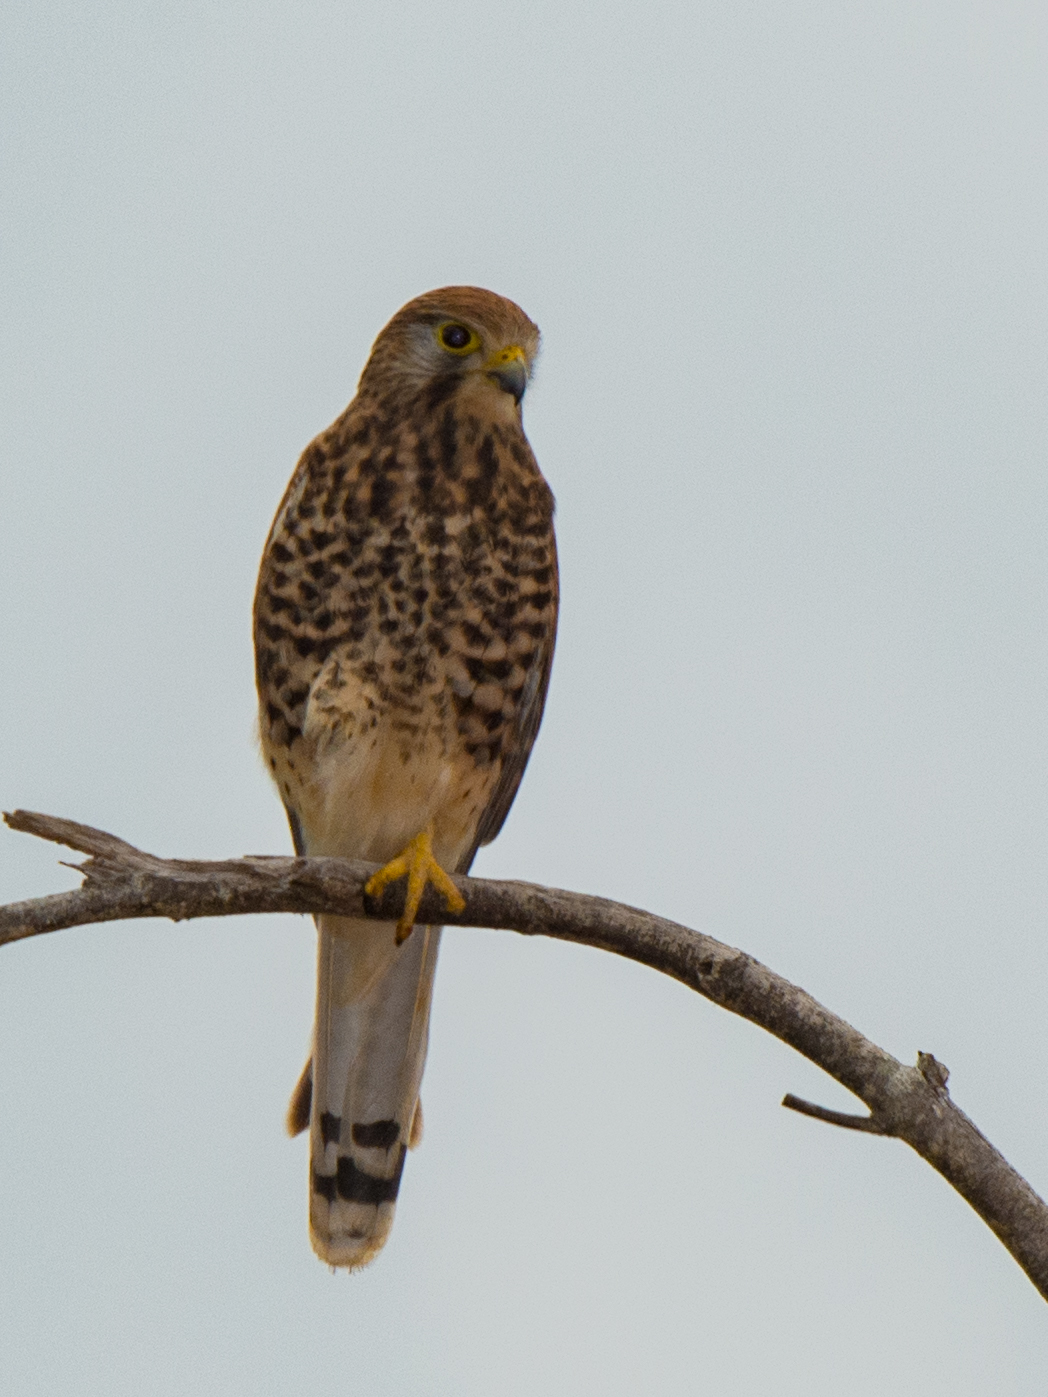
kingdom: Animalia
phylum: Chordata
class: Aves
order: Falconiformes
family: Falconidae
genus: Falco
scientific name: Falco moluccensis
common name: Spotted kestrel
